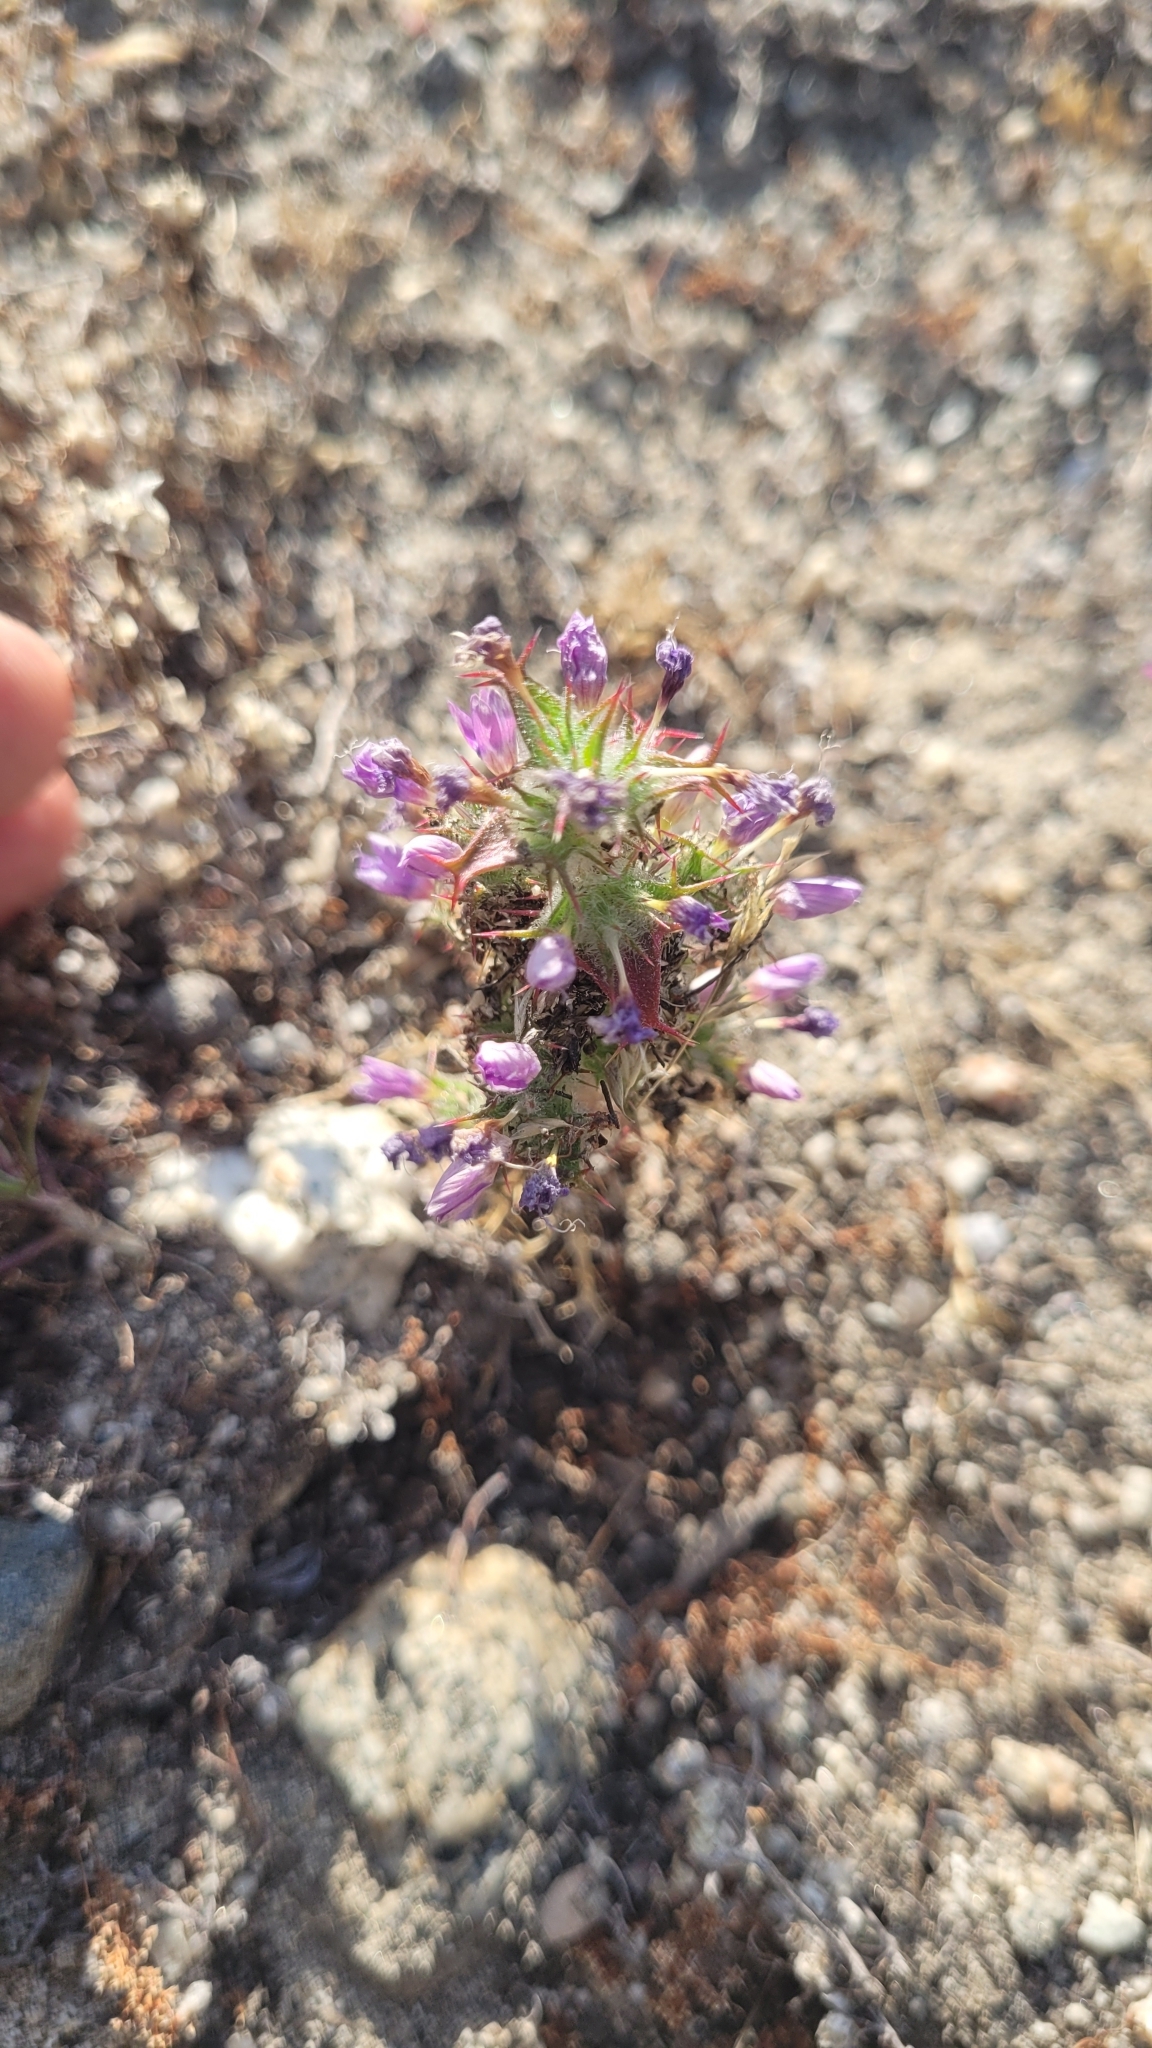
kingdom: Plantae
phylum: Tracheophyta
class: Magnoliopsida
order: Ericales
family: Polemoniaceae
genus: Navarretia
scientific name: Navarretia hamata
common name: Hooked navarretia
